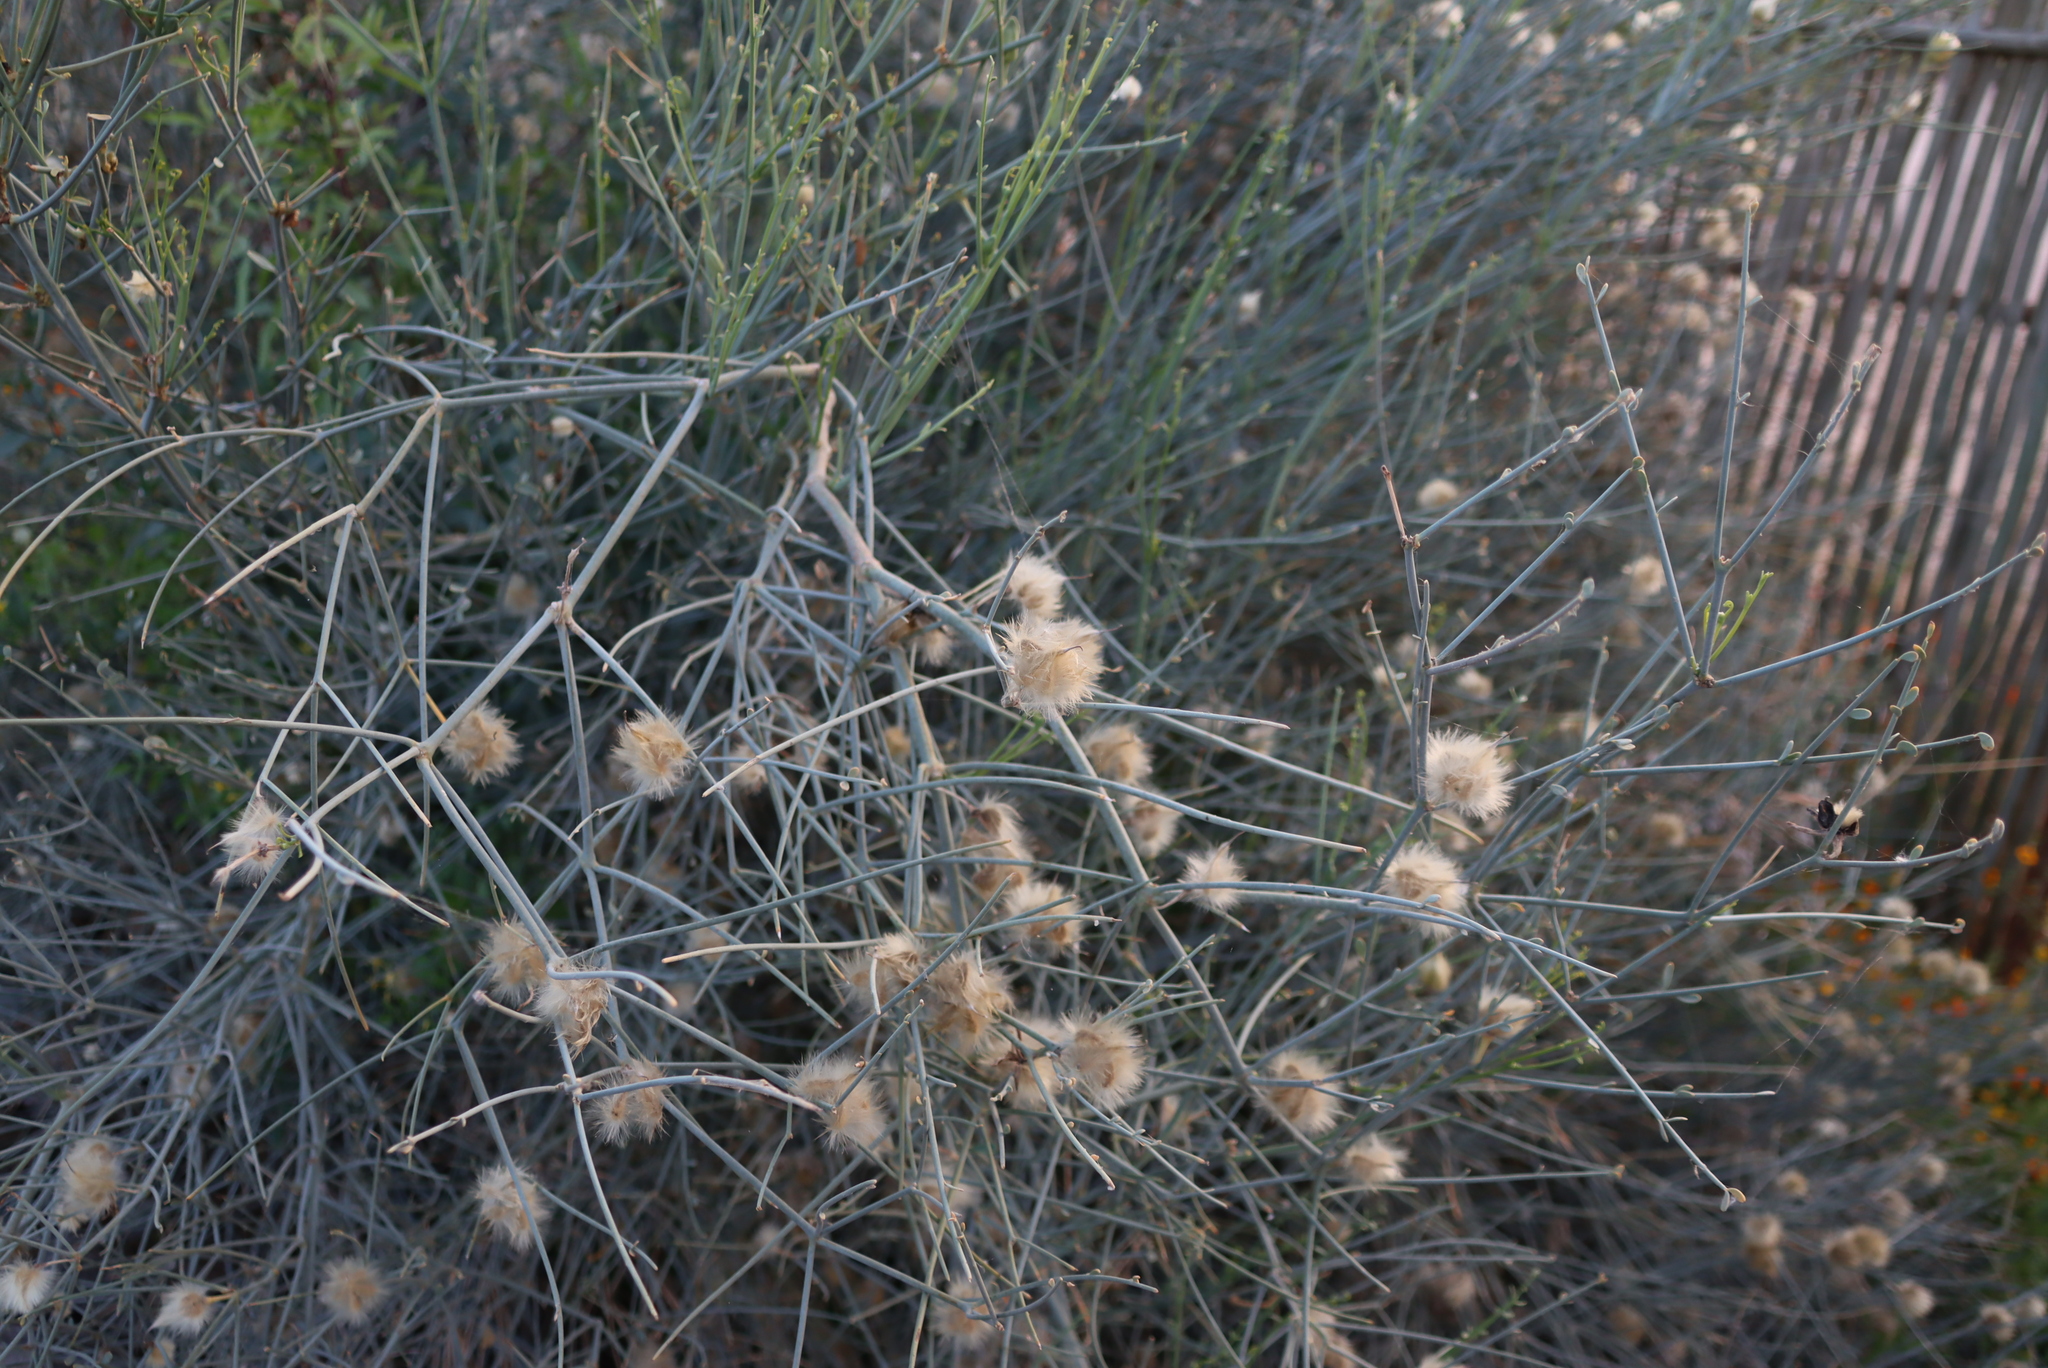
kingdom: Plantae
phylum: Tracheophyta
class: Magnoliopsida
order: Zygophyllales
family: Zygophyllaceae
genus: Sisyndite
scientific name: Sisyndite spartea
